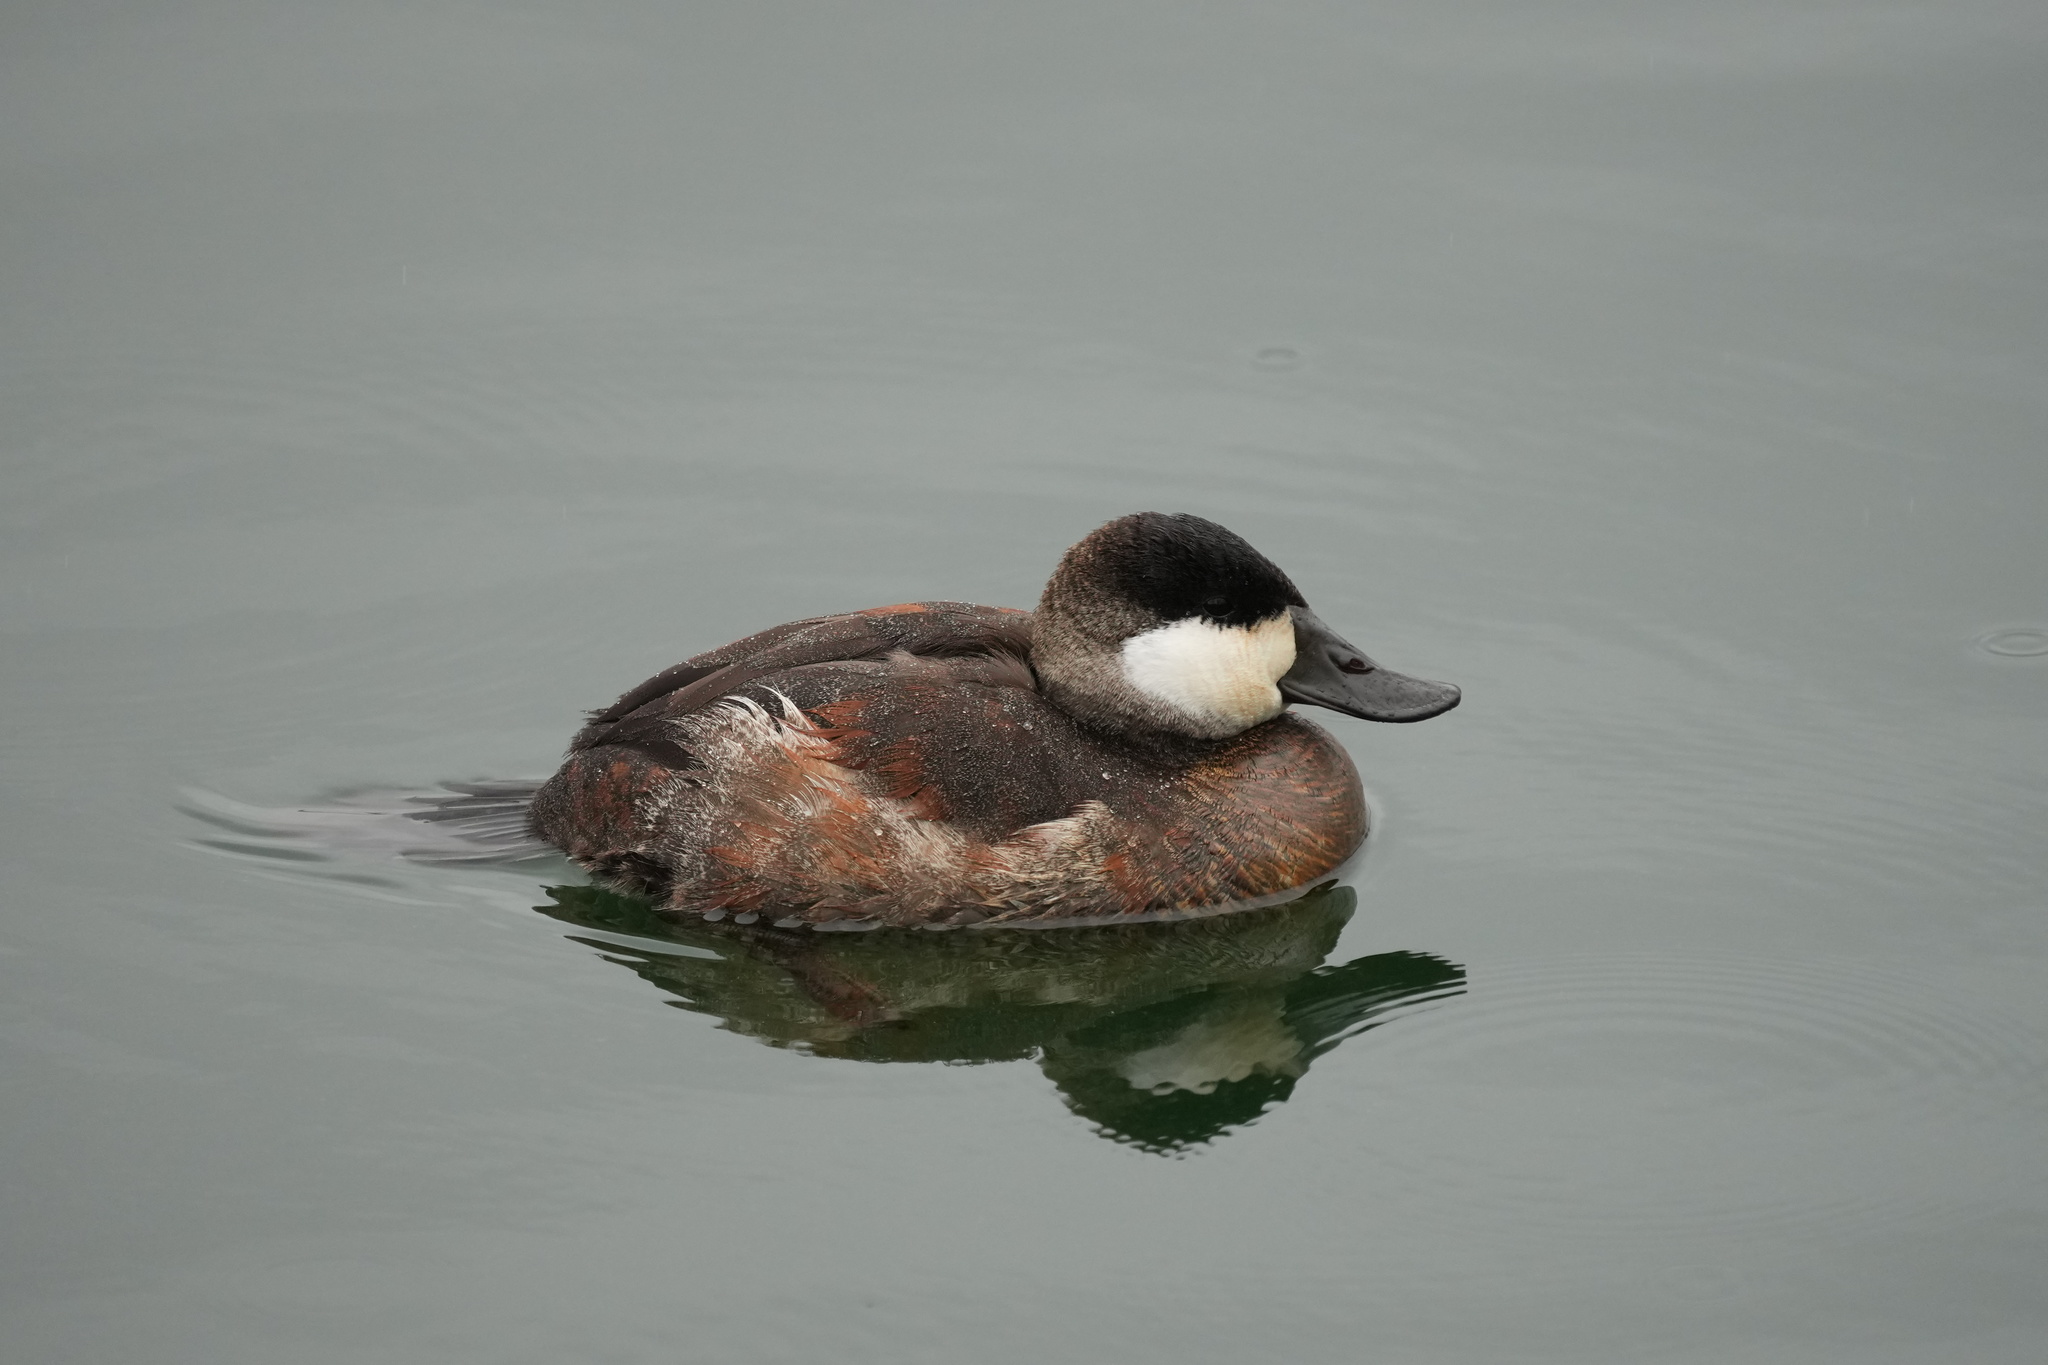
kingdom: Animalia
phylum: Chordata
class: Aves
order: Anseriformes
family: Anatidae
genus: Oxyura
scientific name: Oxyura jamaicensis
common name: Ruddy duck
